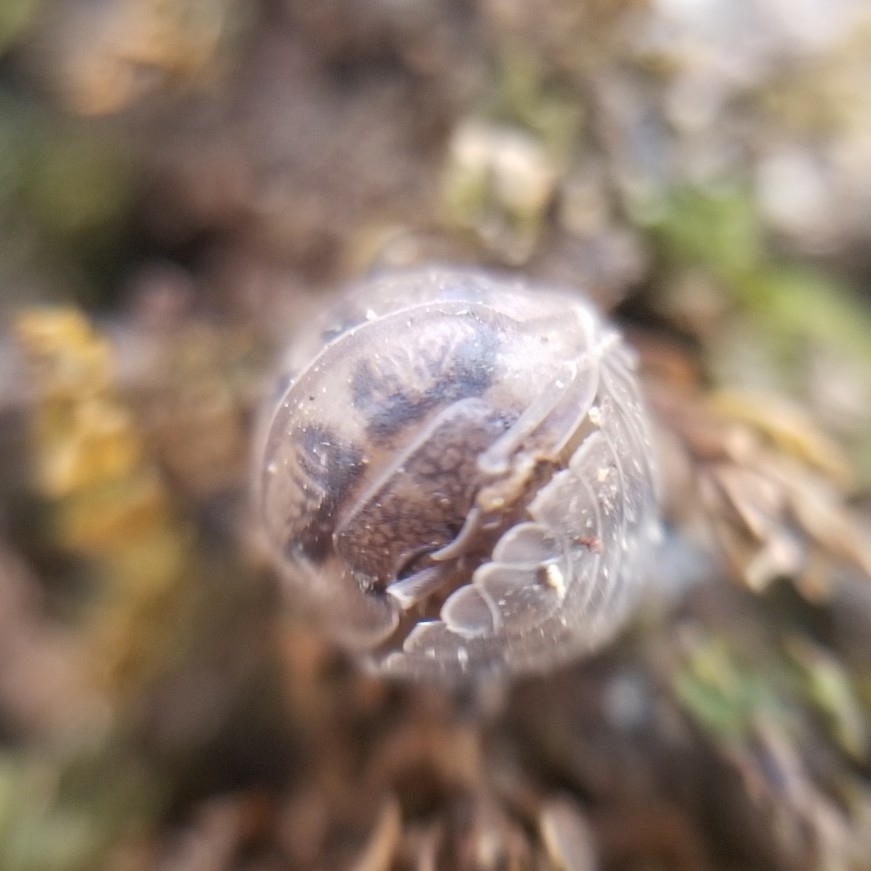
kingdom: Animalia
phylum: Arthropoda
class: Malacostraca
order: Isopoda
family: Armadillidiidae
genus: Armadillidium
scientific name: Armadillidium nasatum
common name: Isopod
